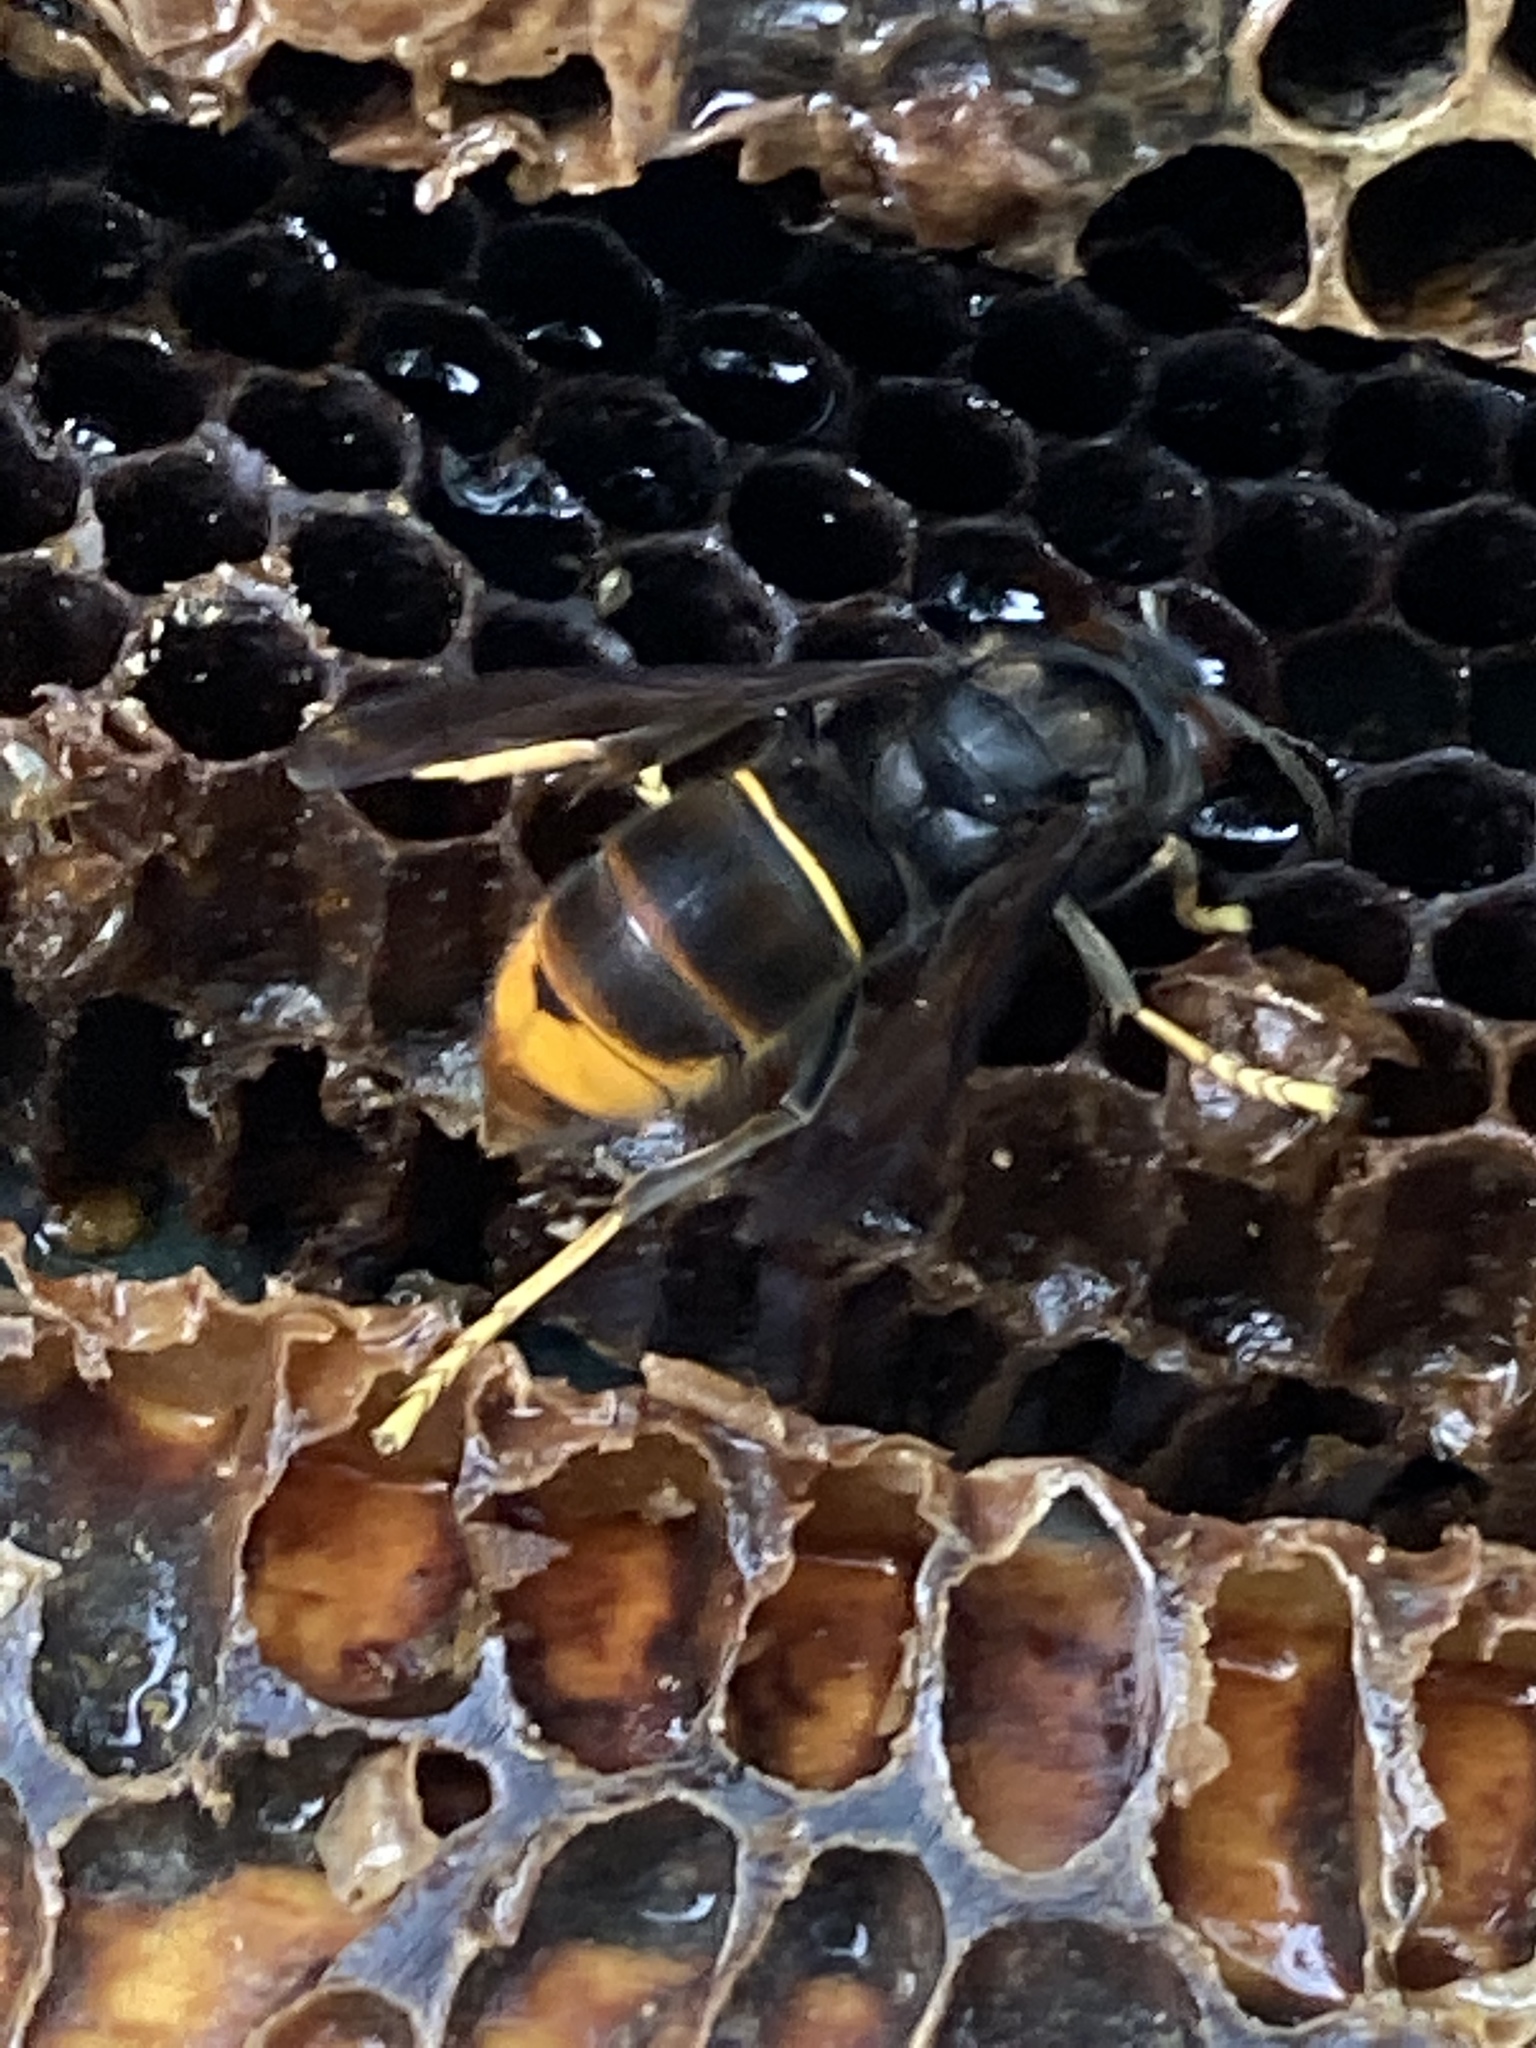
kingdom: Animalia
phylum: Arthropoda
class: Insecta
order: Hymenoptera
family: Vespidae
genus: Vespa
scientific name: Vespa velutina
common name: Asian hornet
